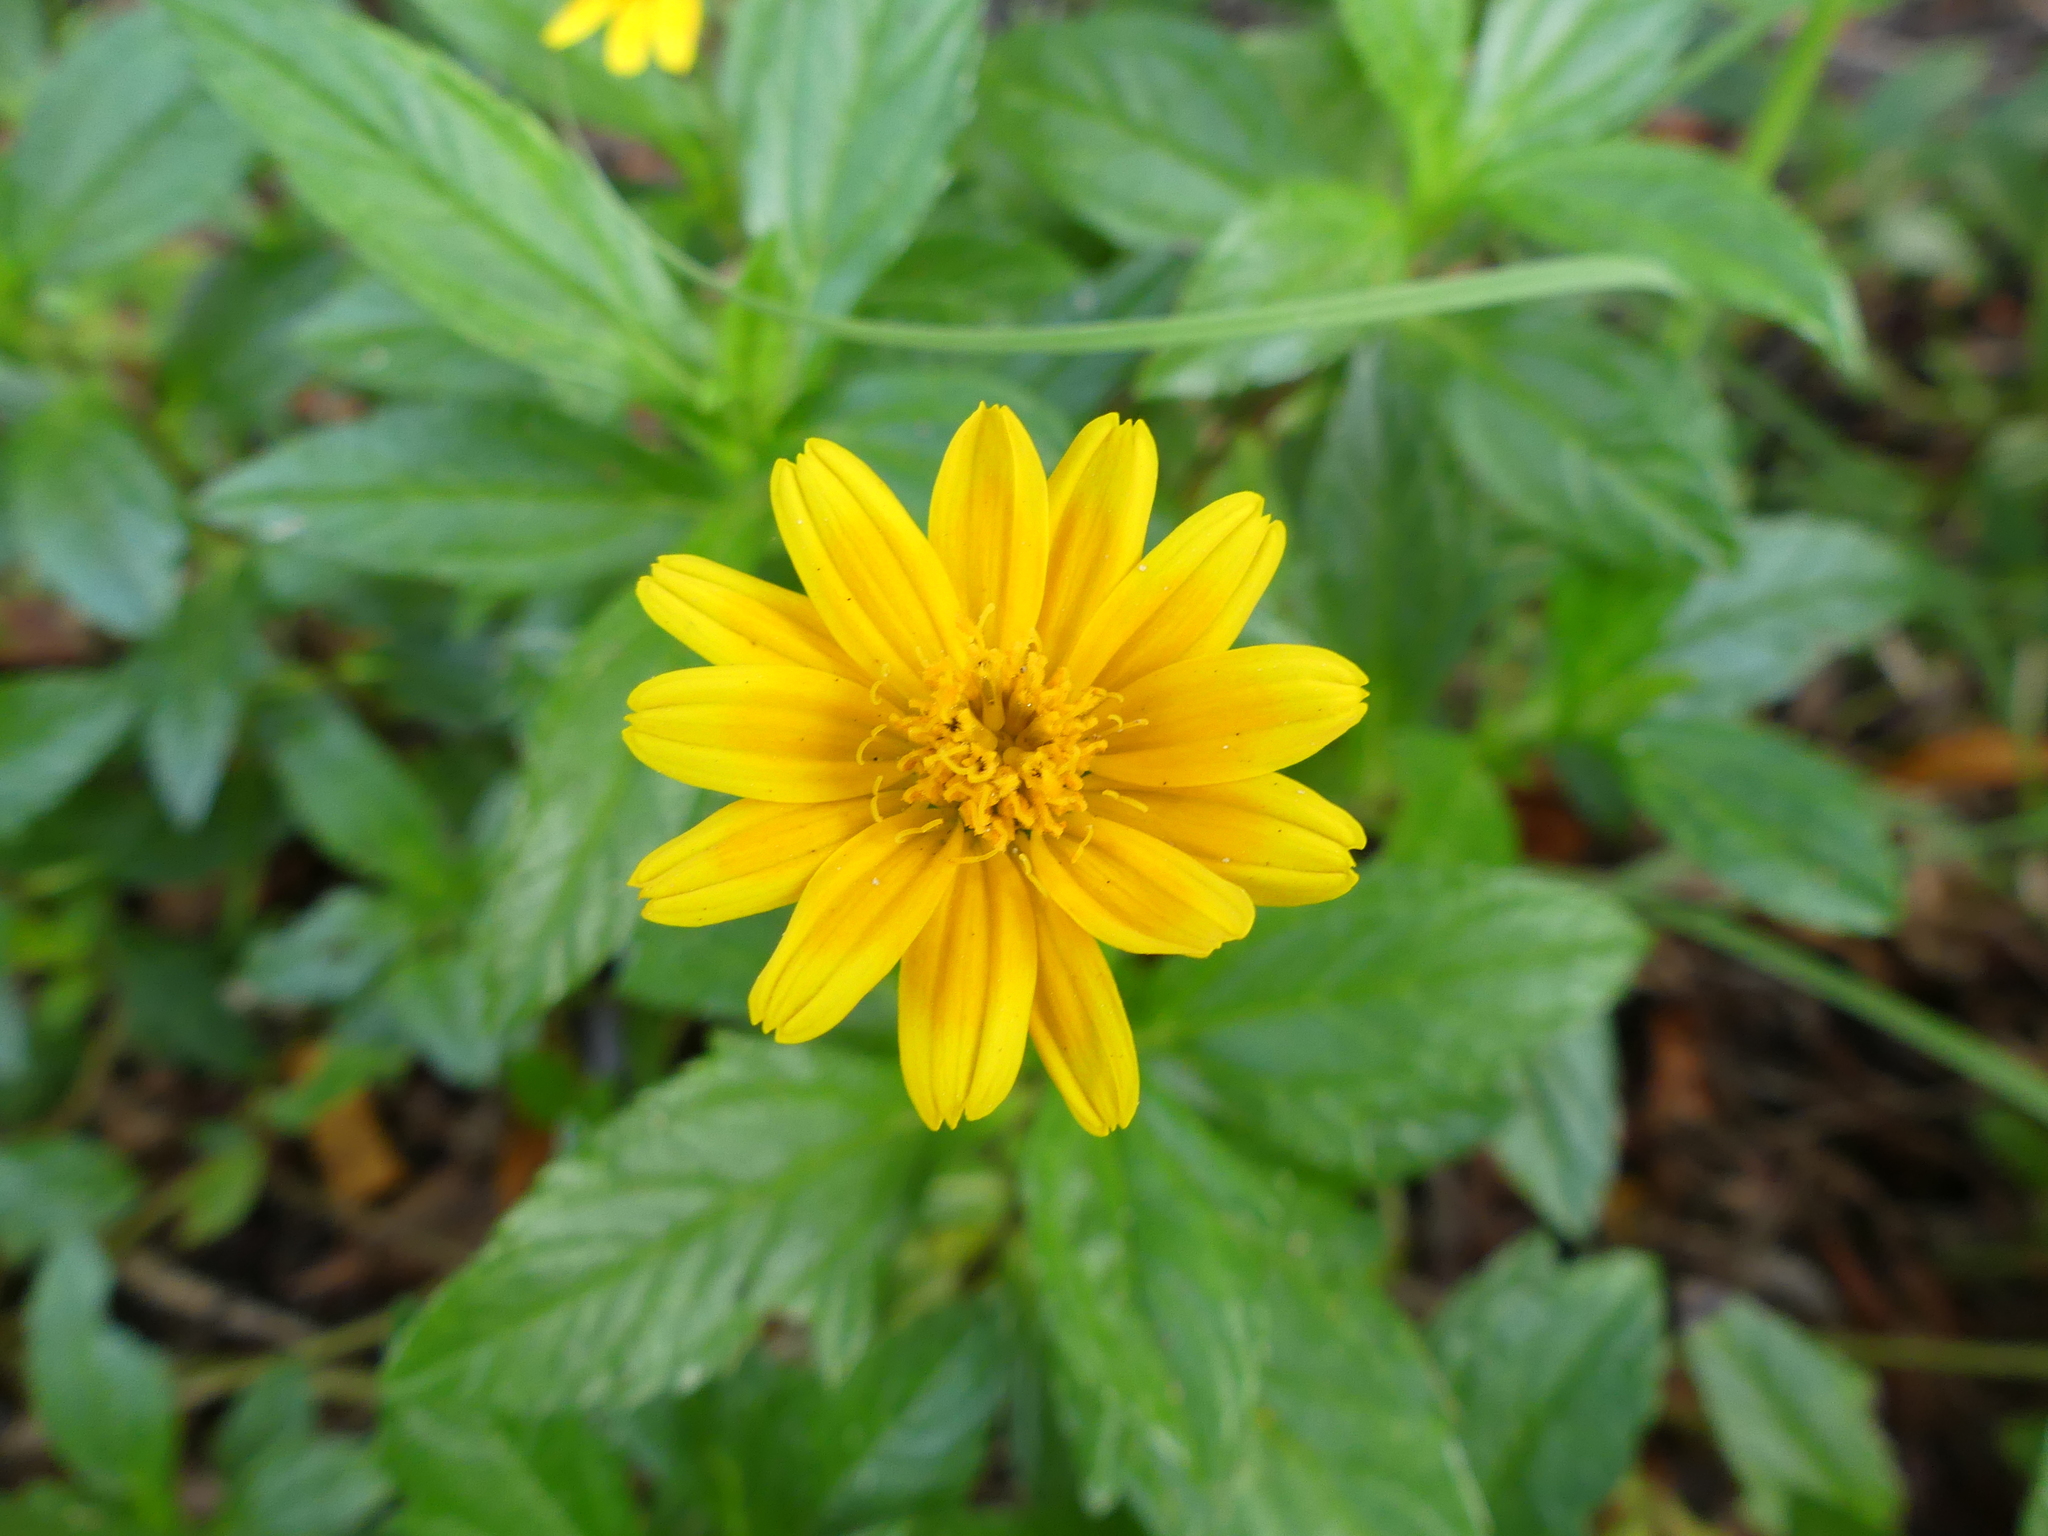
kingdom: Plantae
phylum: Tracheophyta
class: Magnoliopsida
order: Asterales
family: Asteraceae
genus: Sphagneticola
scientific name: Sphagneticola trilobata
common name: Bay biscayne creeping-oxeye
